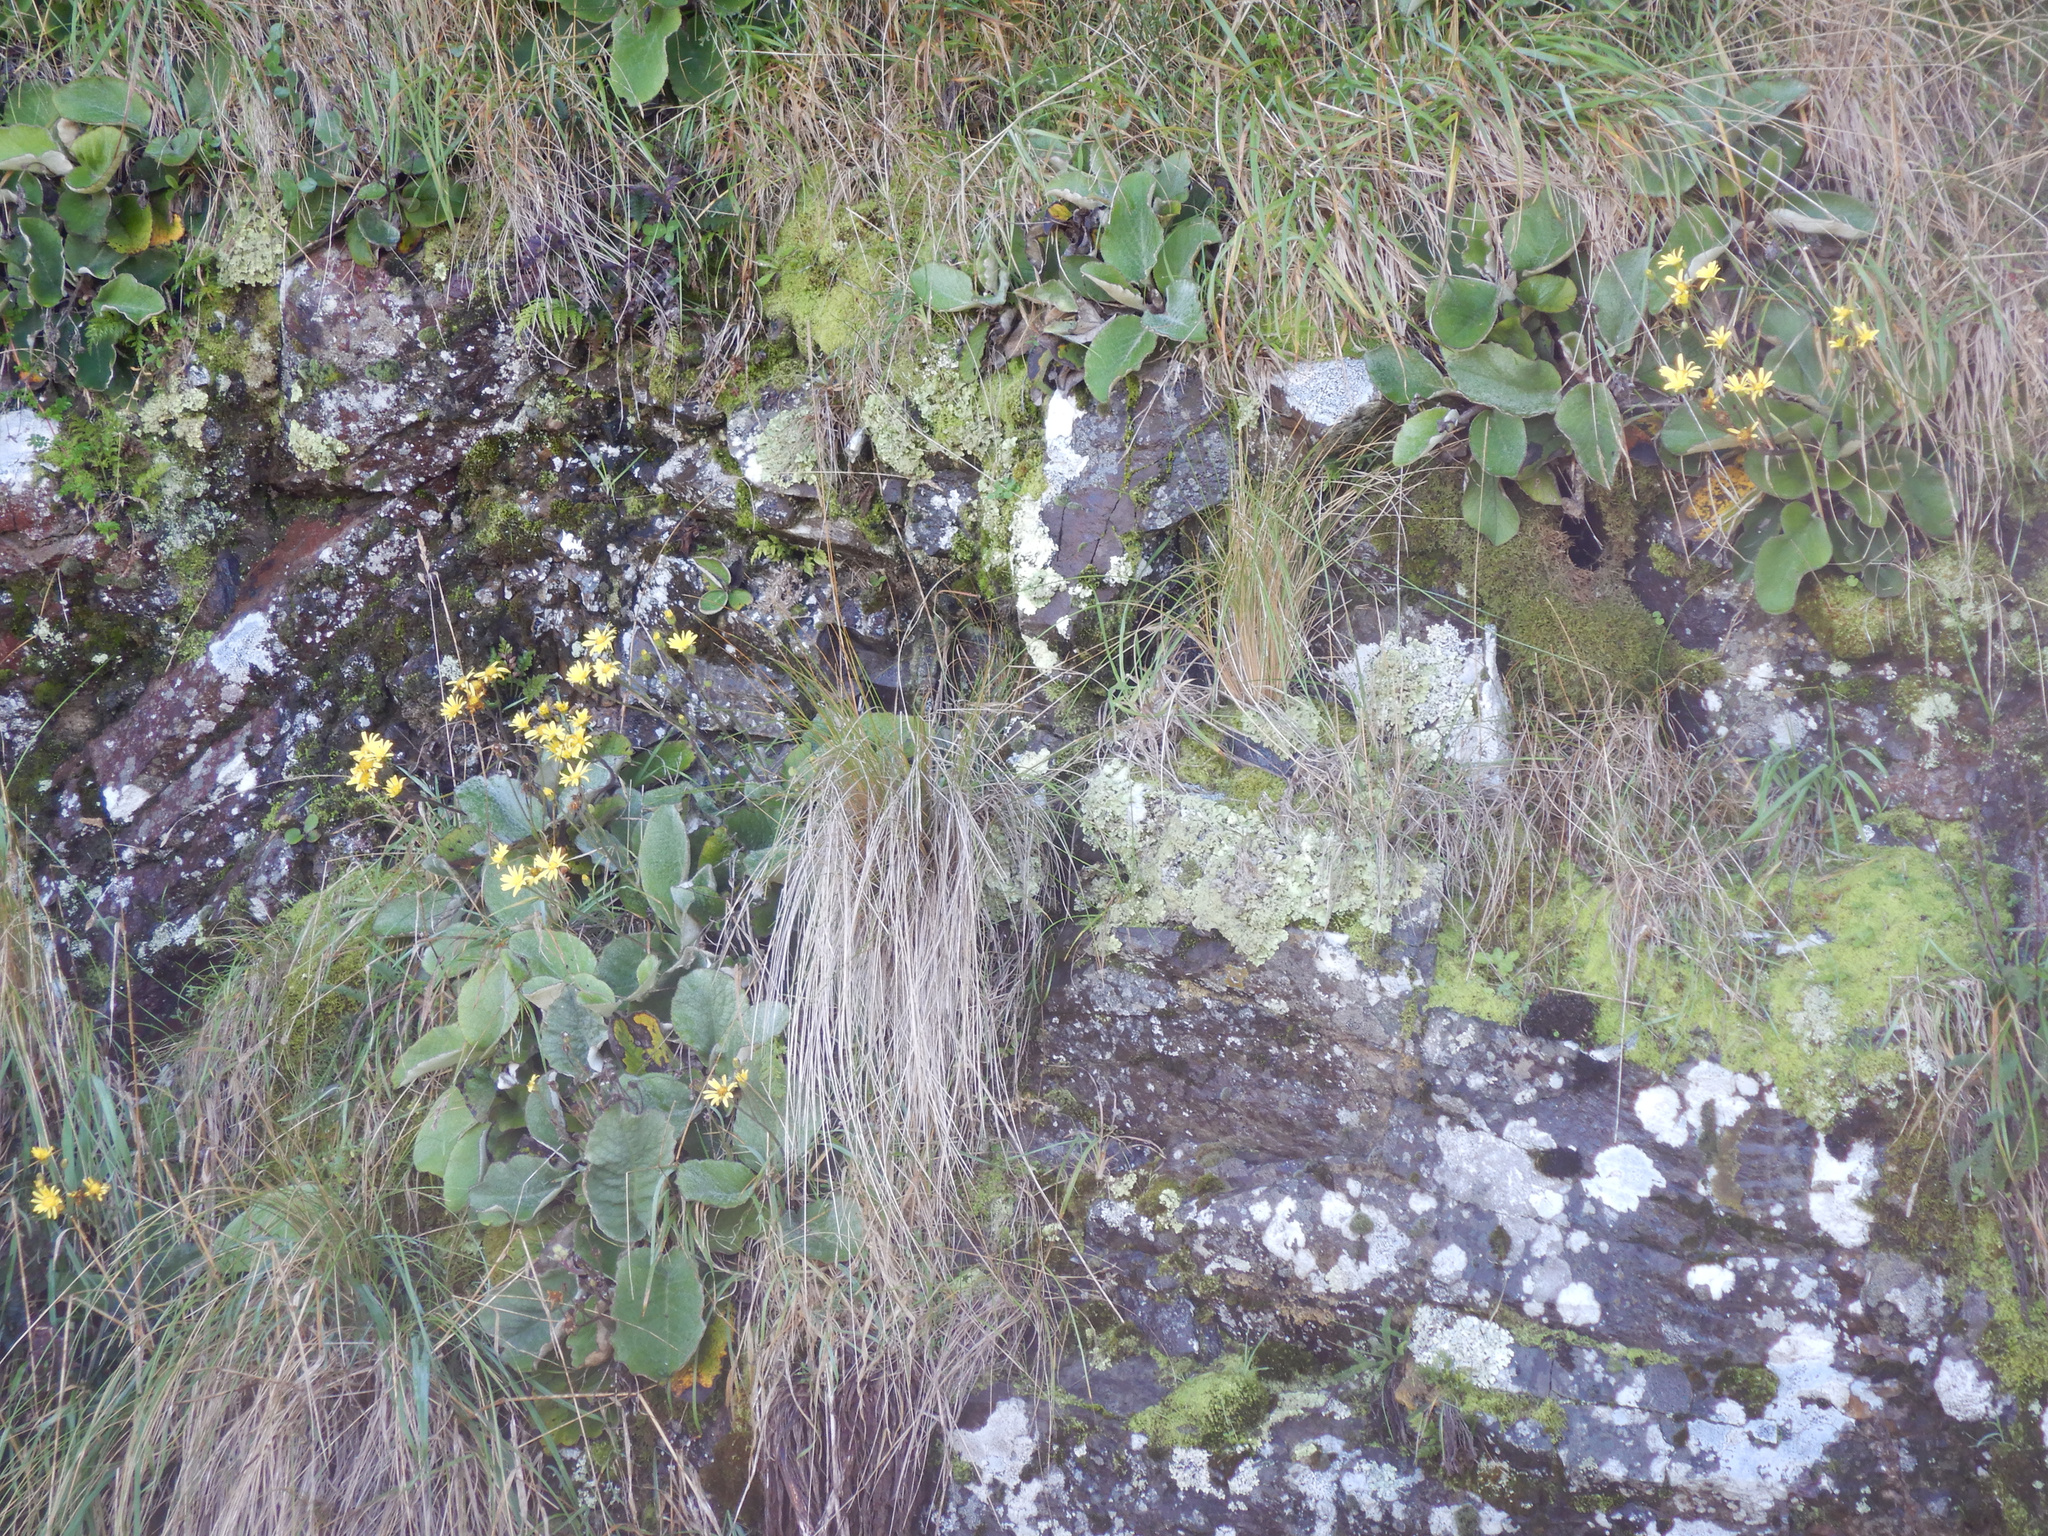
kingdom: Plantae
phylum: Tracheophyta
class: Magnoliopsida
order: Asterales
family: Asteraceae
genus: Brachyglottis
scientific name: Brachyglottis lagopus
